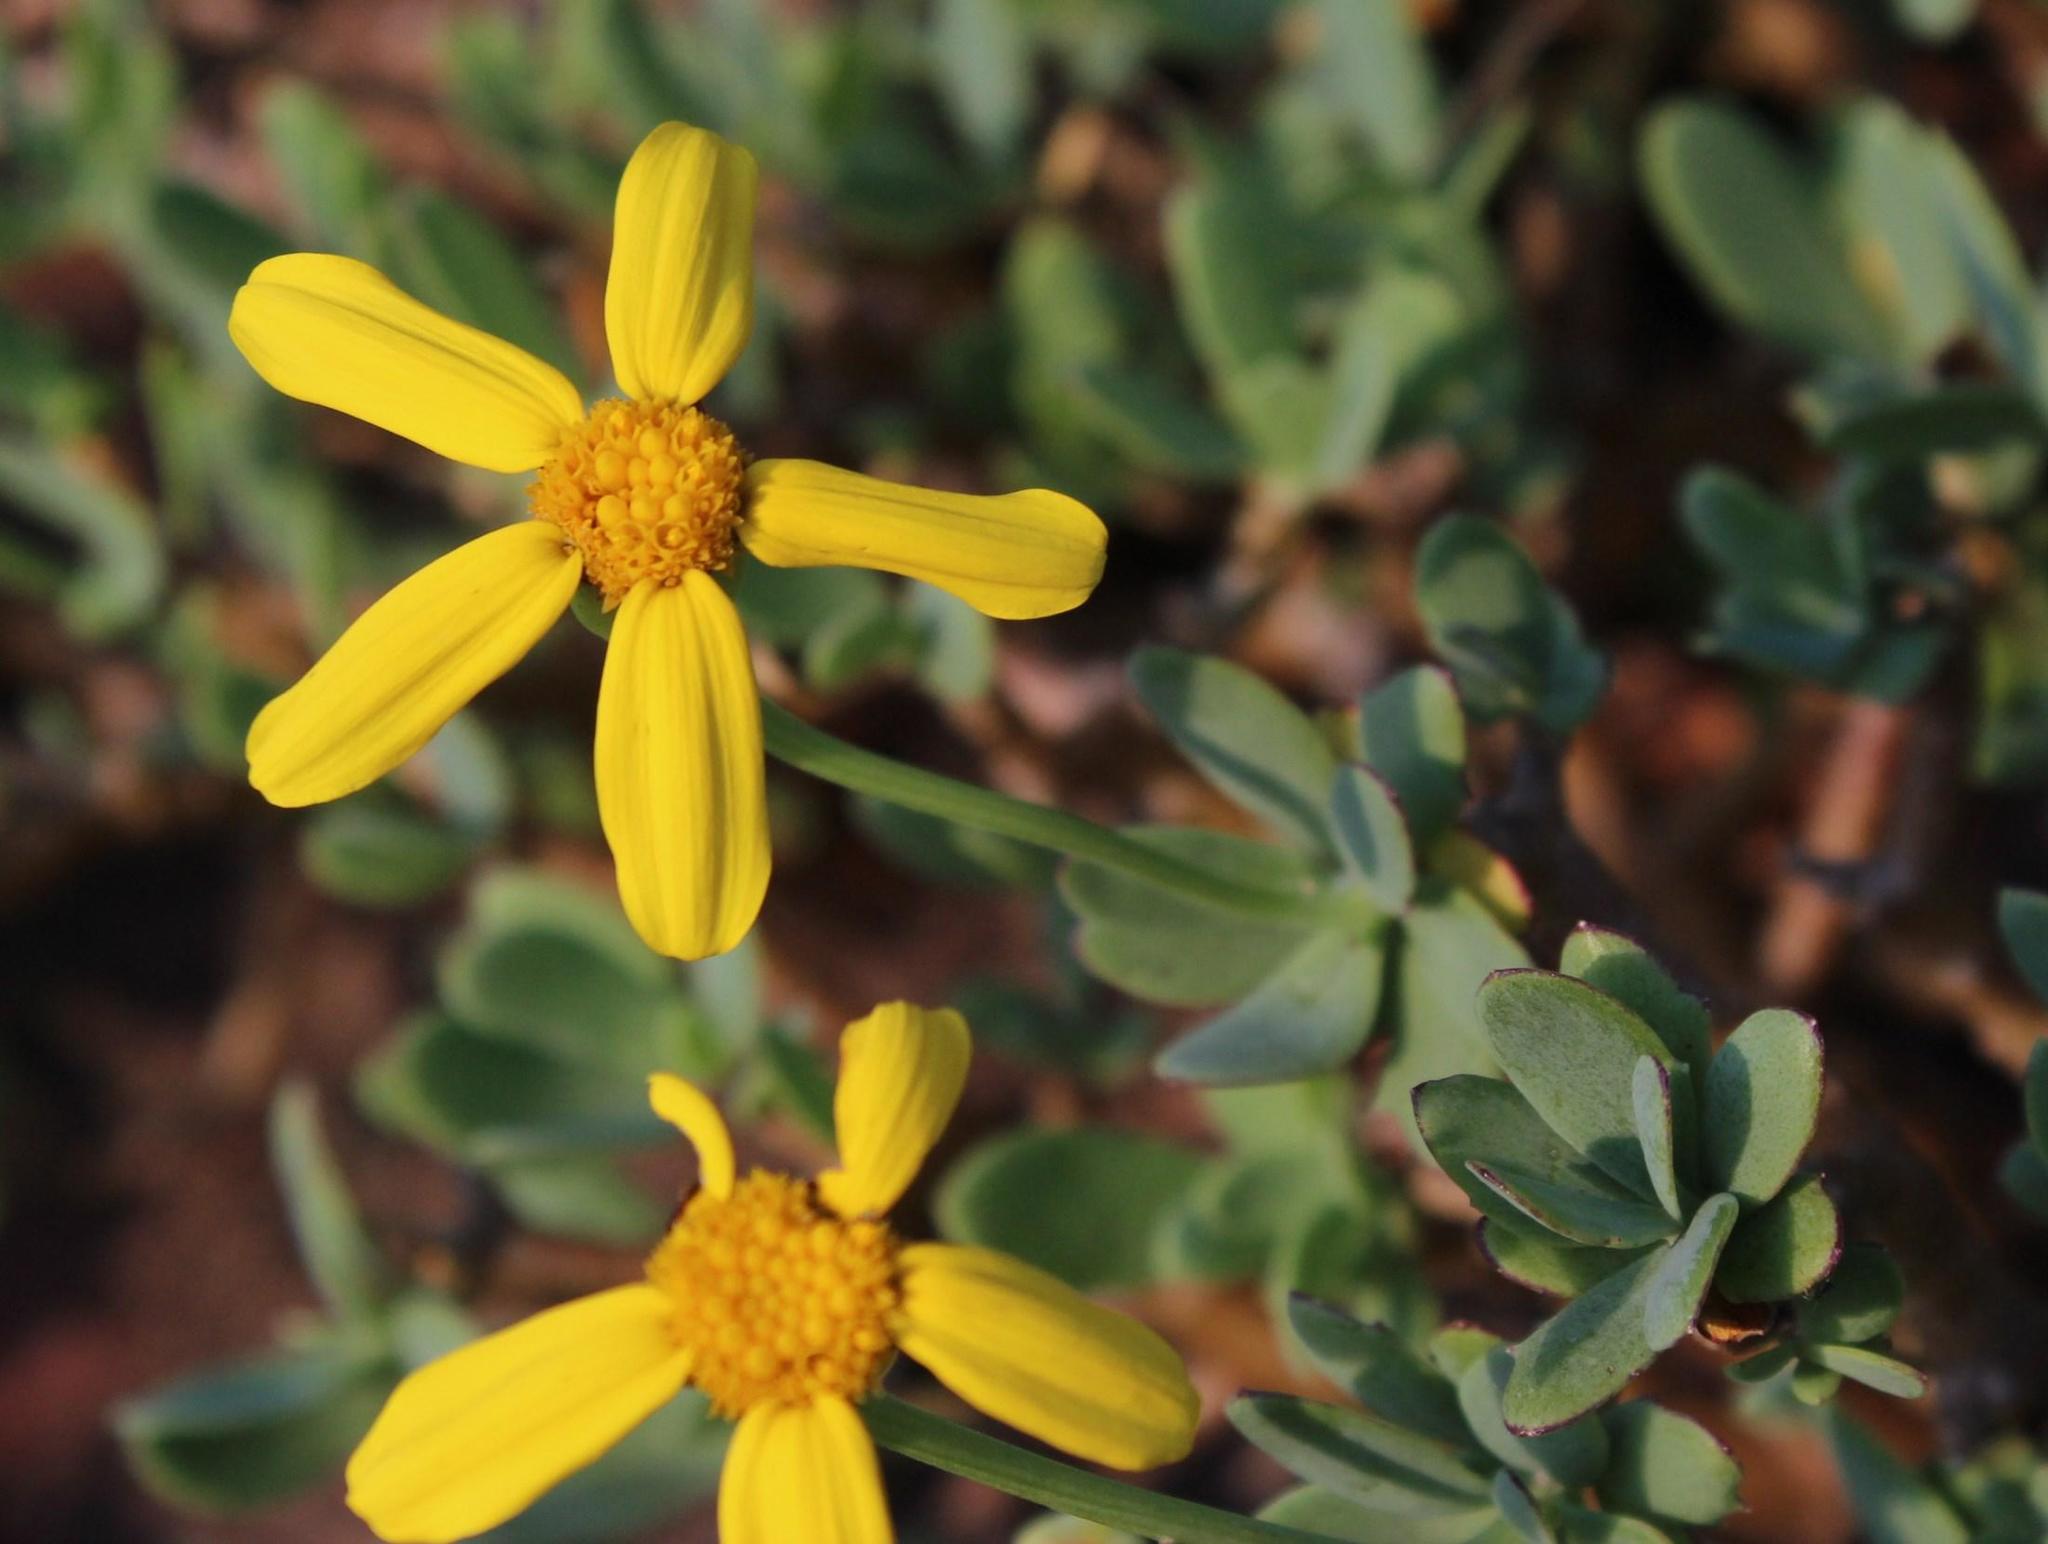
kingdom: Plantae
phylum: Tracheophyta
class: Magnoliopsida
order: Asterales
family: Asteraceae
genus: Othonna
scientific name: Othonna arborescens
